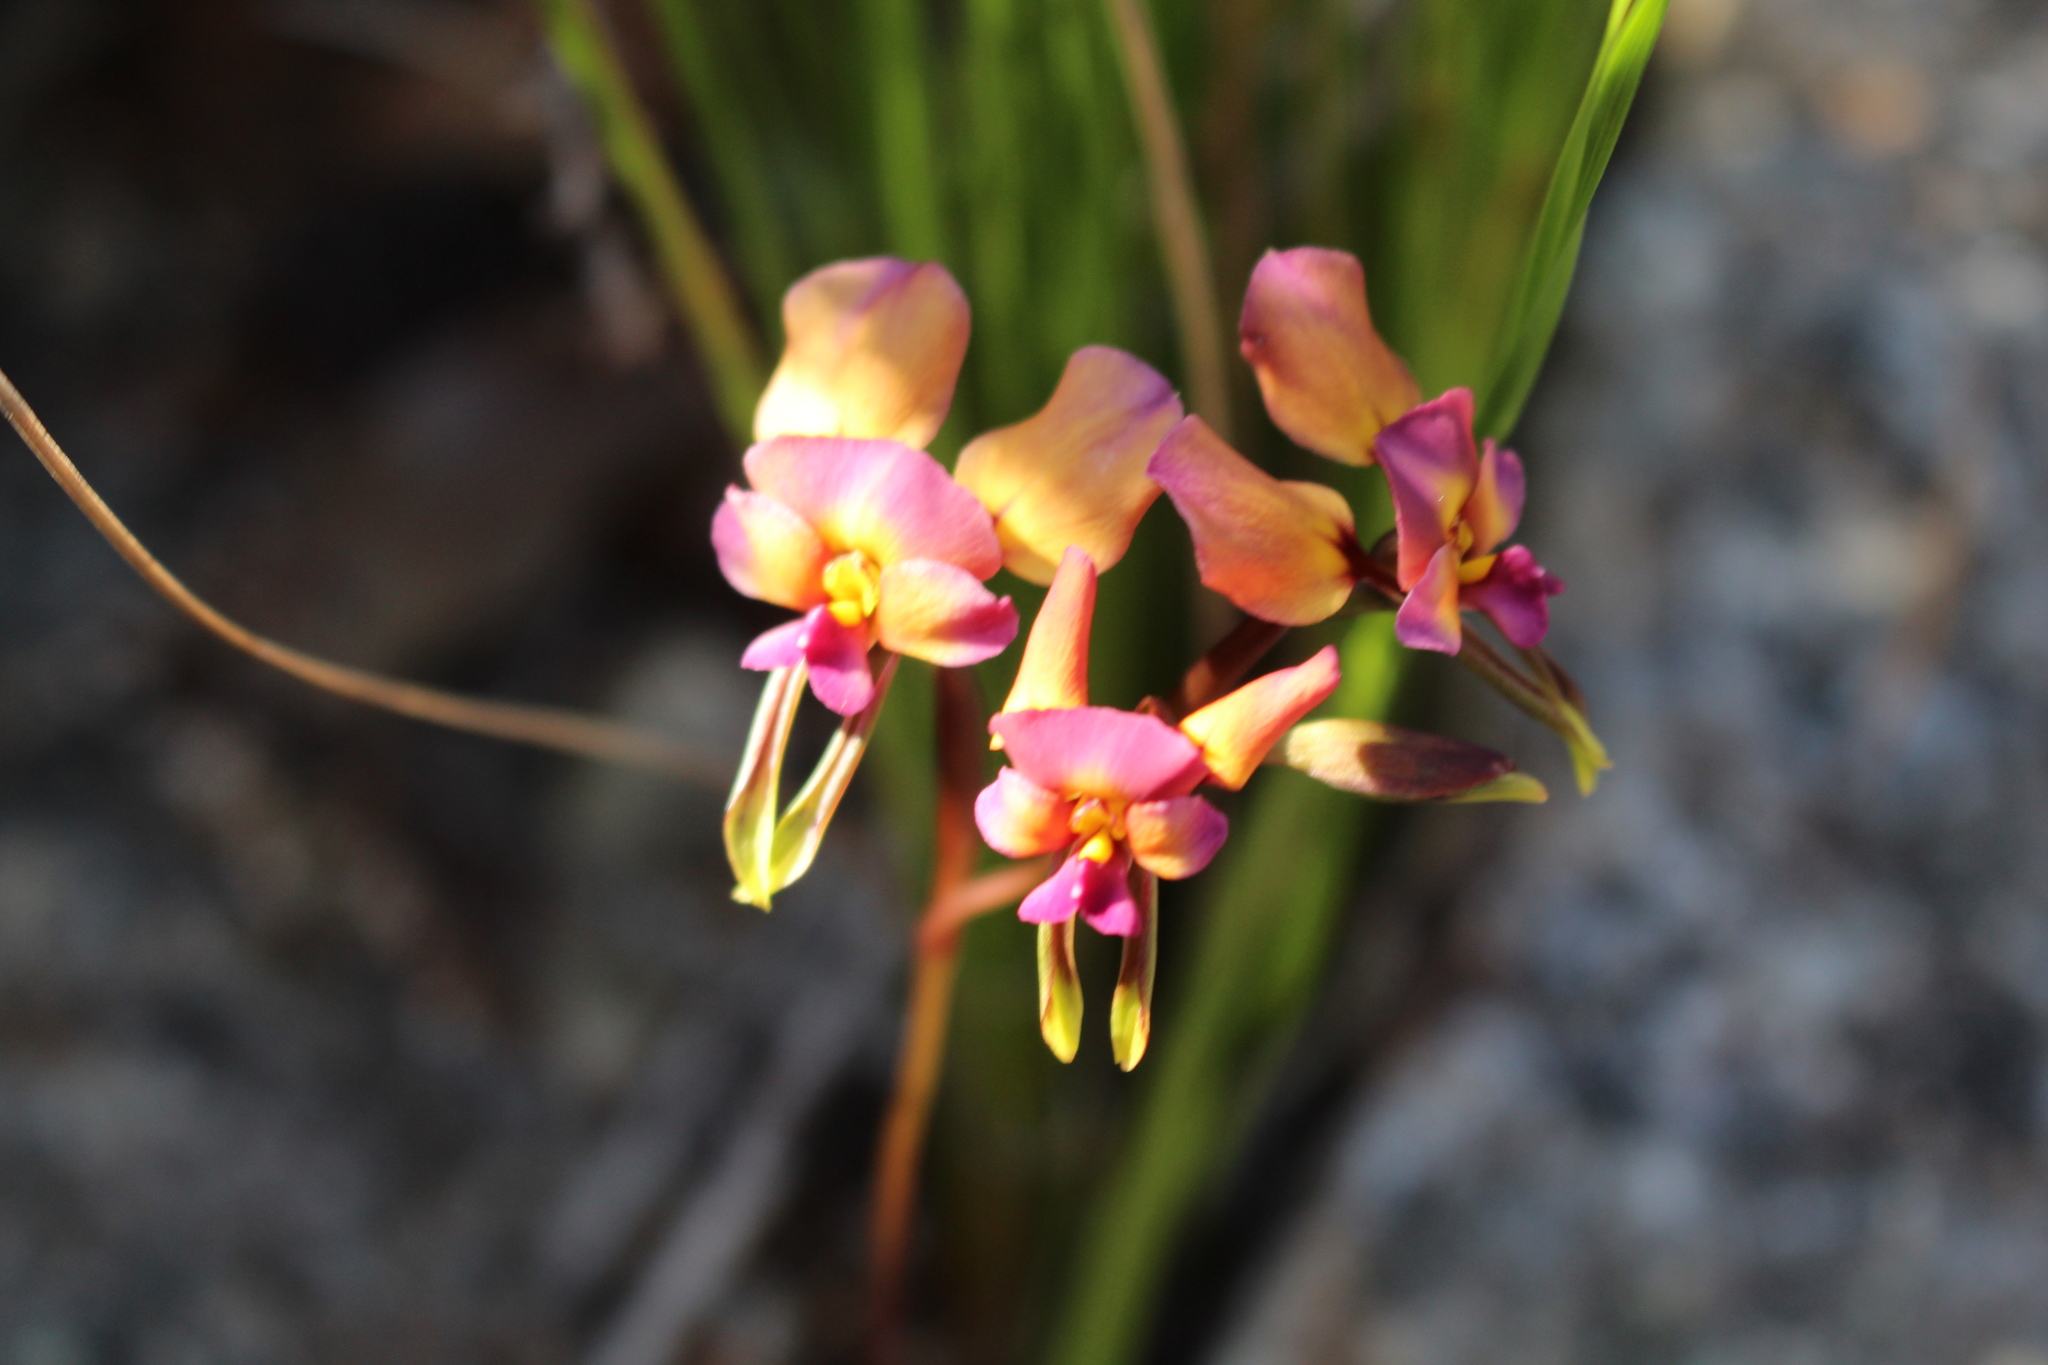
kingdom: Plantae
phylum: Tracheophyta
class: Liliopsida
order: Asparagales
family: Orchidaceae
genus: Diuris
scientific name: Diuris longifolia
